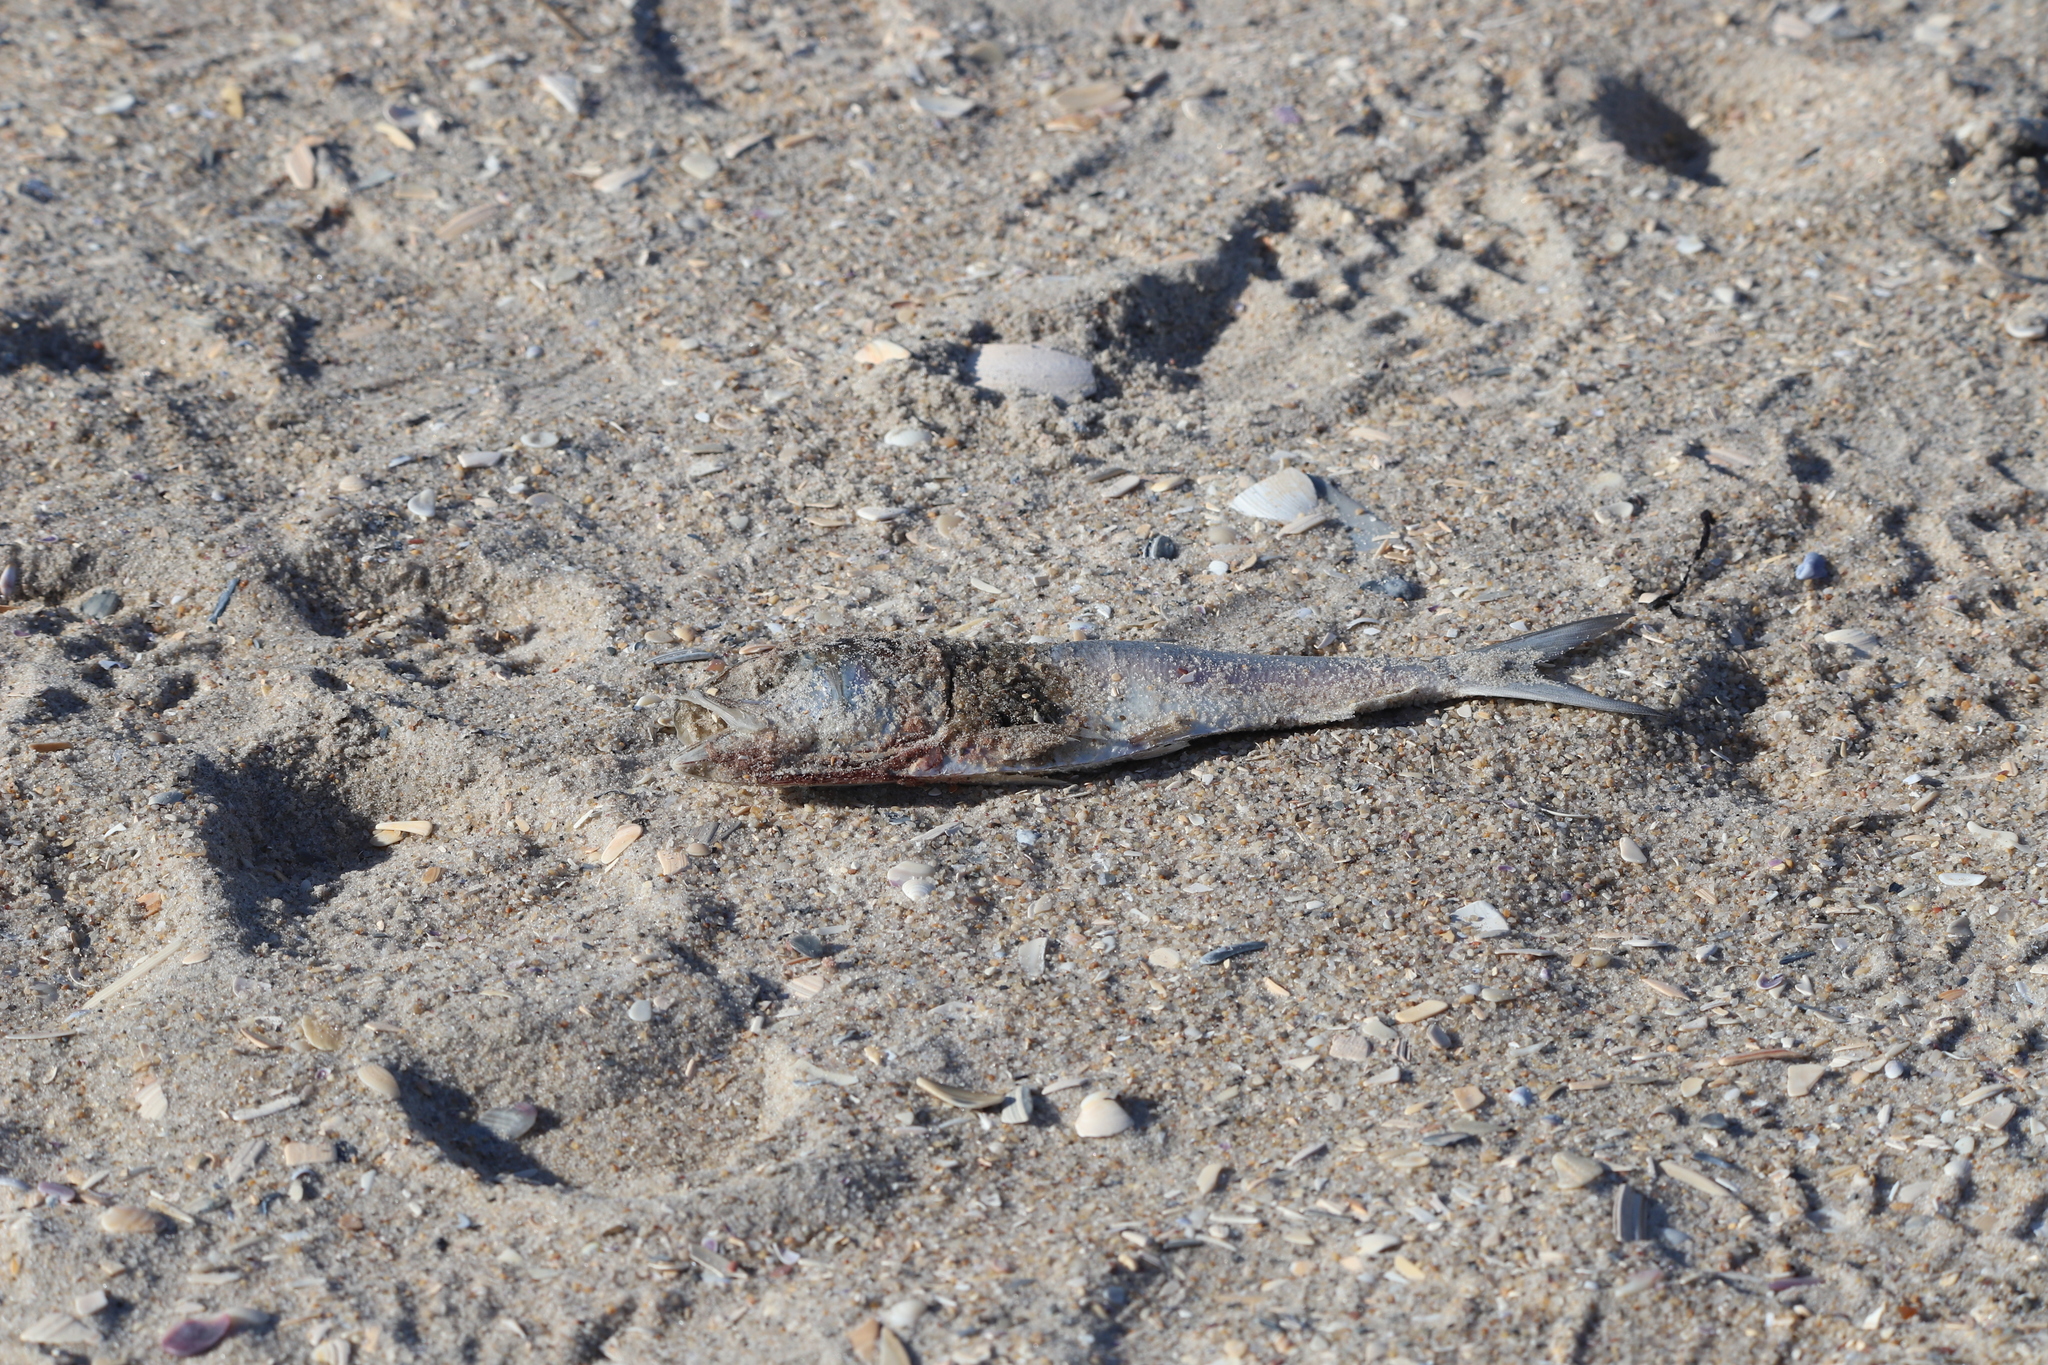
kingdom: Animalia
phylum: Chordata
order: Clupeiformes
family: Clupeidae
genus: Brevoortia
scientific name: Brevoortia tyrannus
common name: Atlantic menhaden
